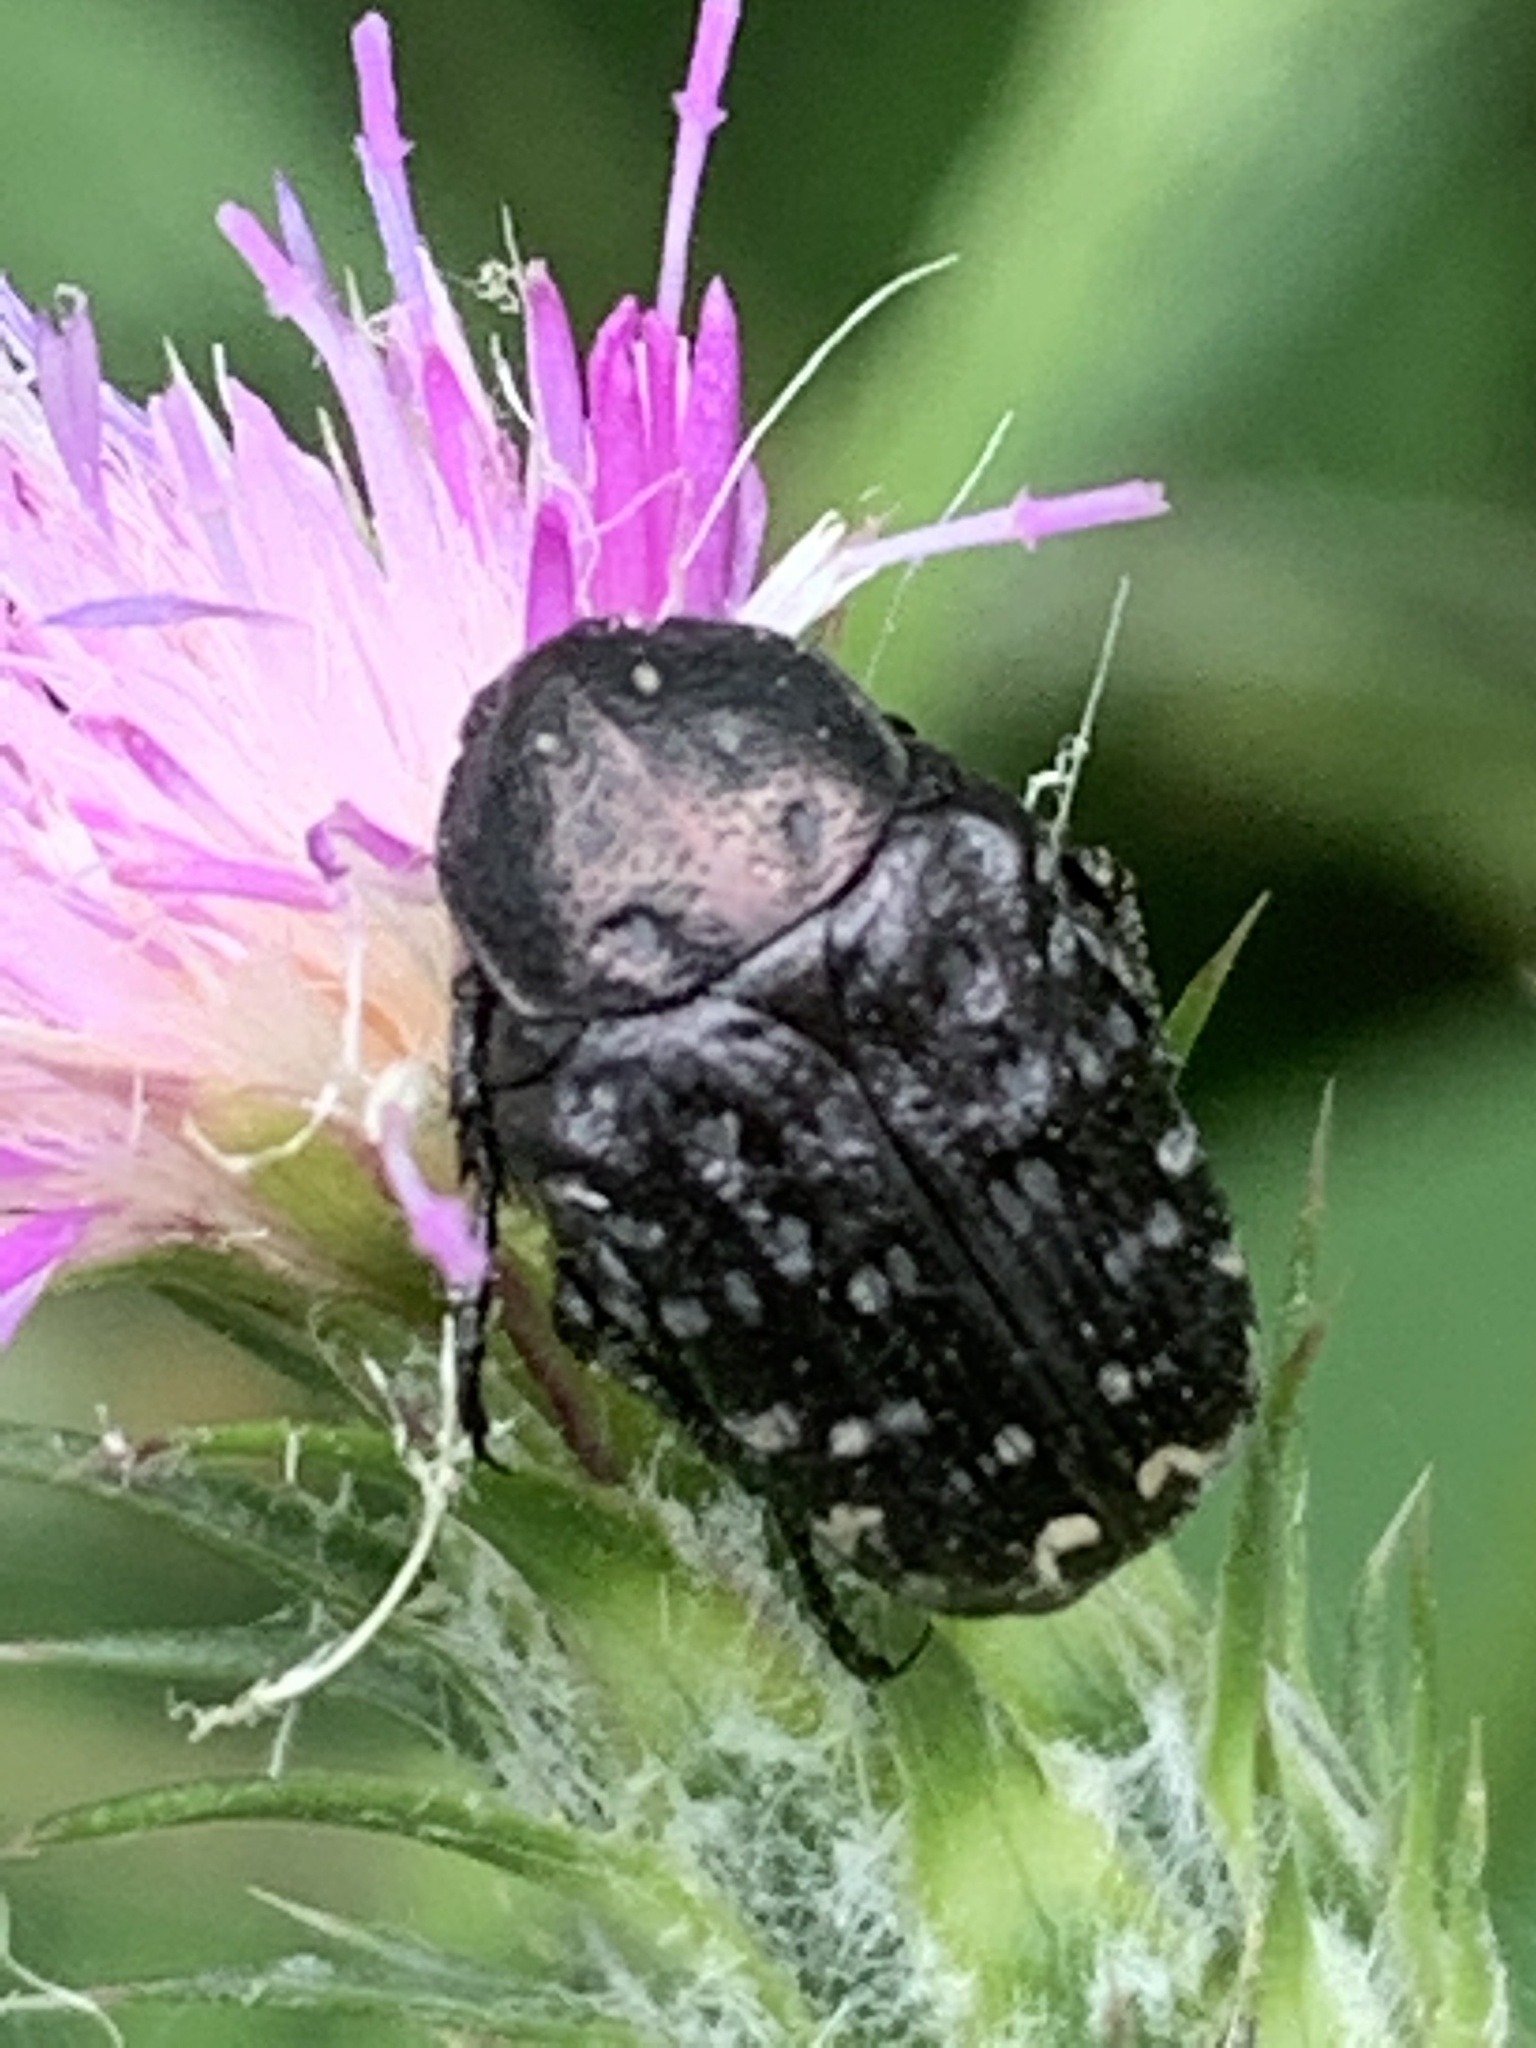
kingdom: Animalia
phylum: Arthropoda
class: Insecta
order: Coleoptera
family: Scarabaeidae
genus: Oxythyrea
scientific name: Oxythyrea funesta
